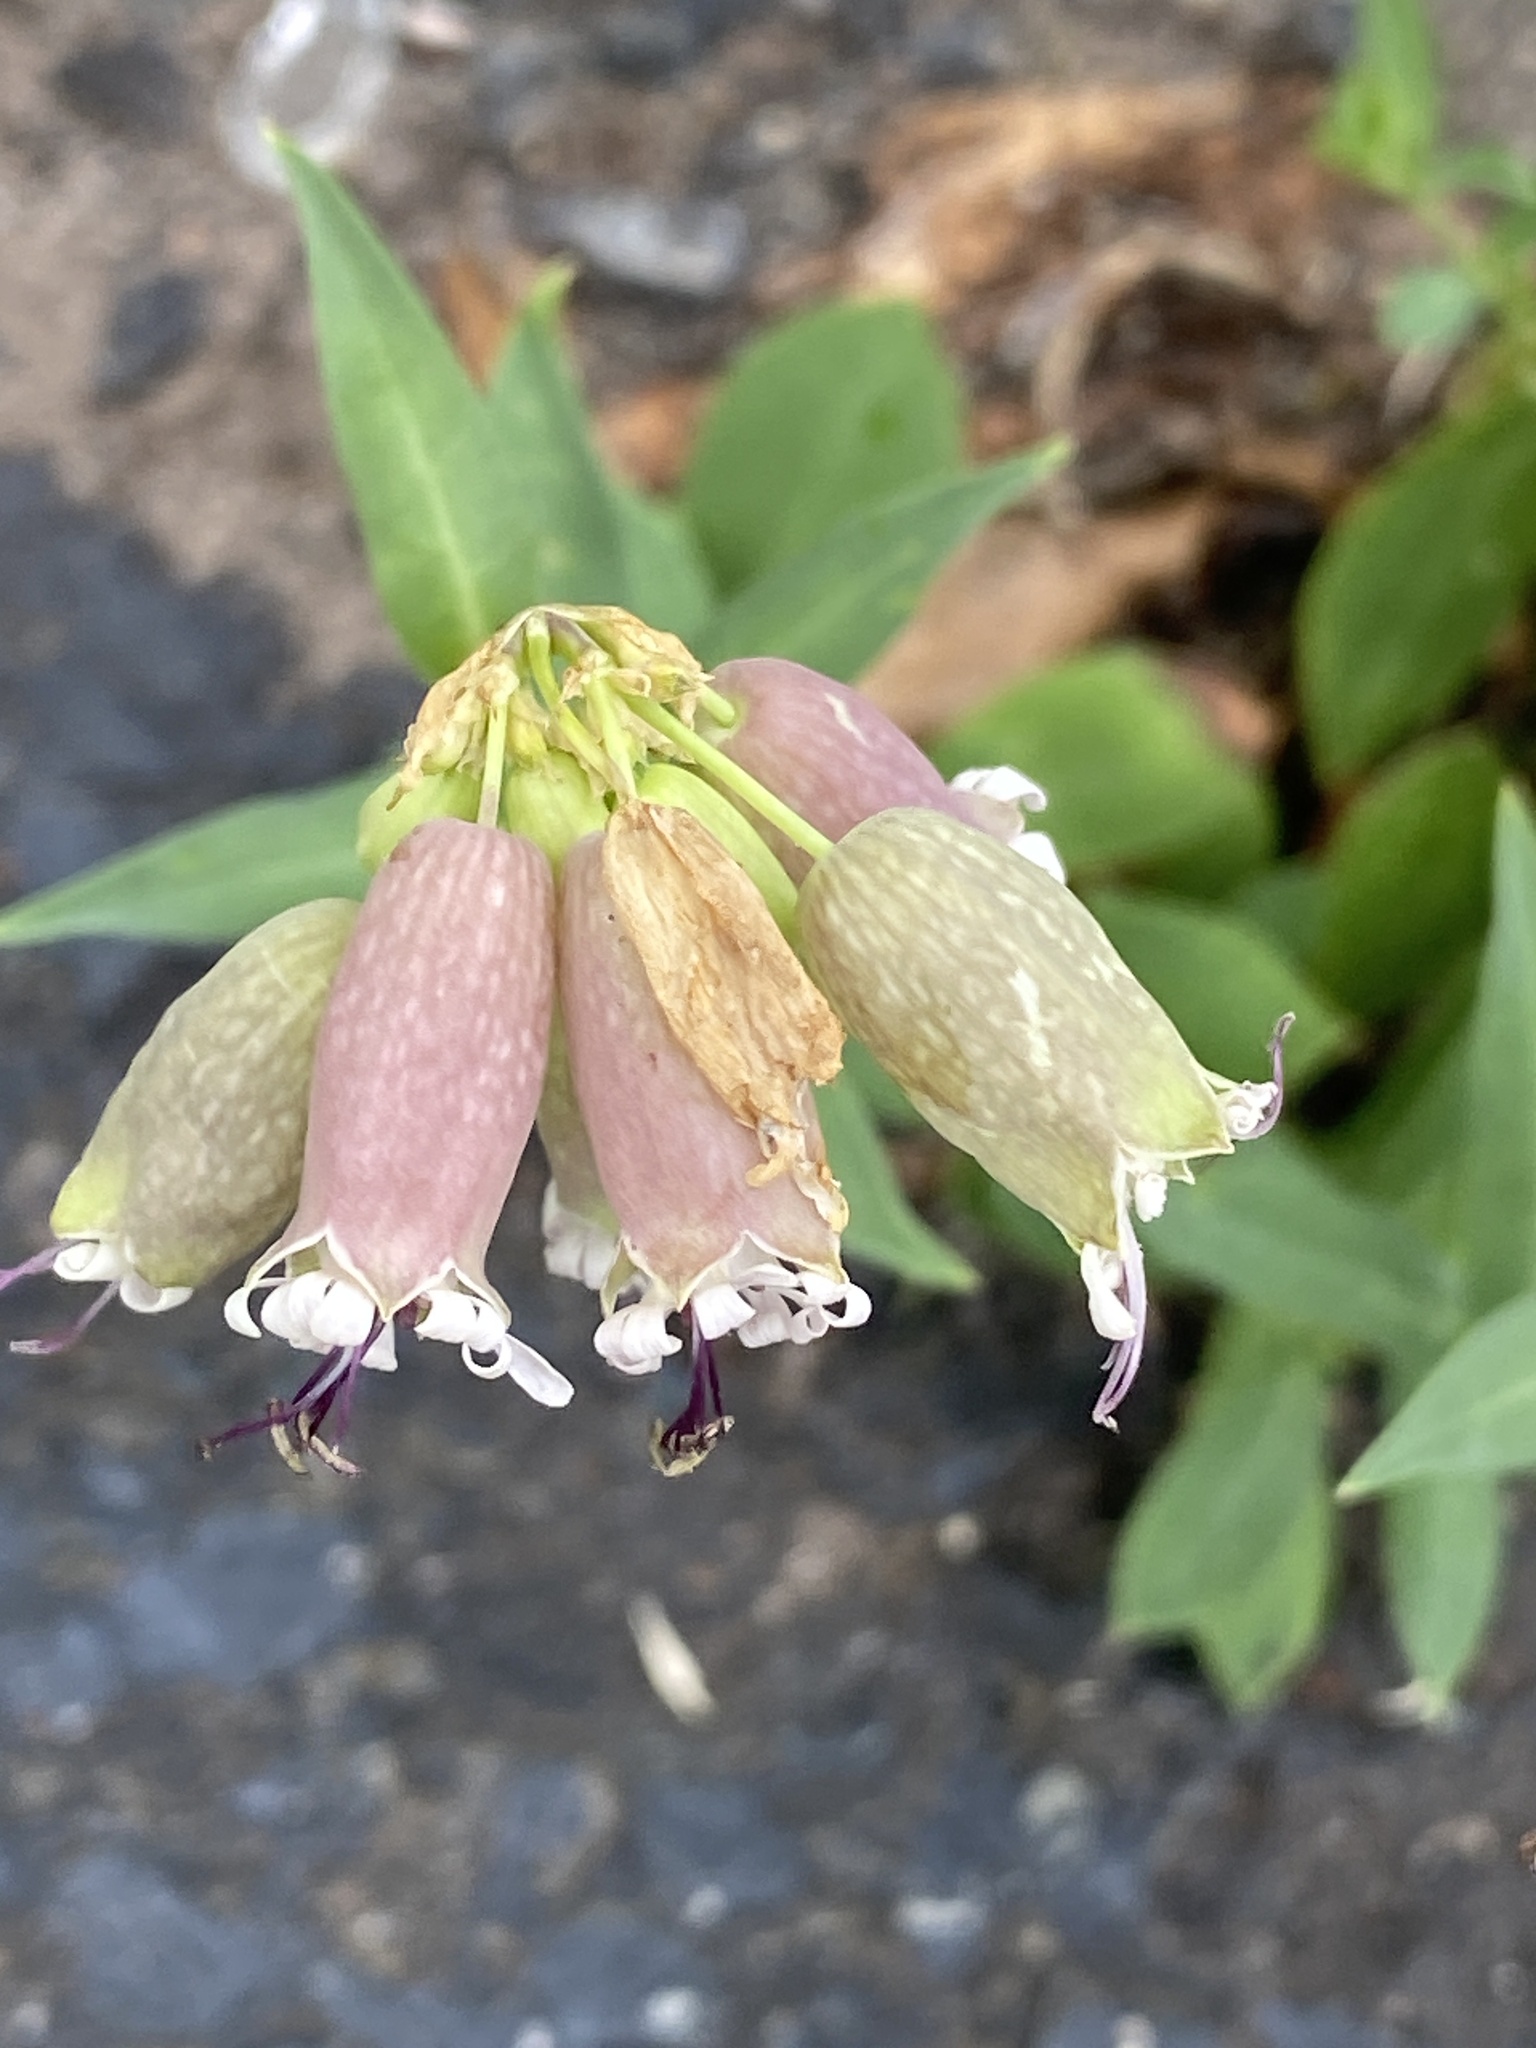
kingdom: Plantae
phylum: Tracheophyta
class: Magnoliopsida
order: Caryophyllales
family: Caryophyllaceae
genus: Silene
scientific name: Silene vulgaris
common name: Bladder campion
